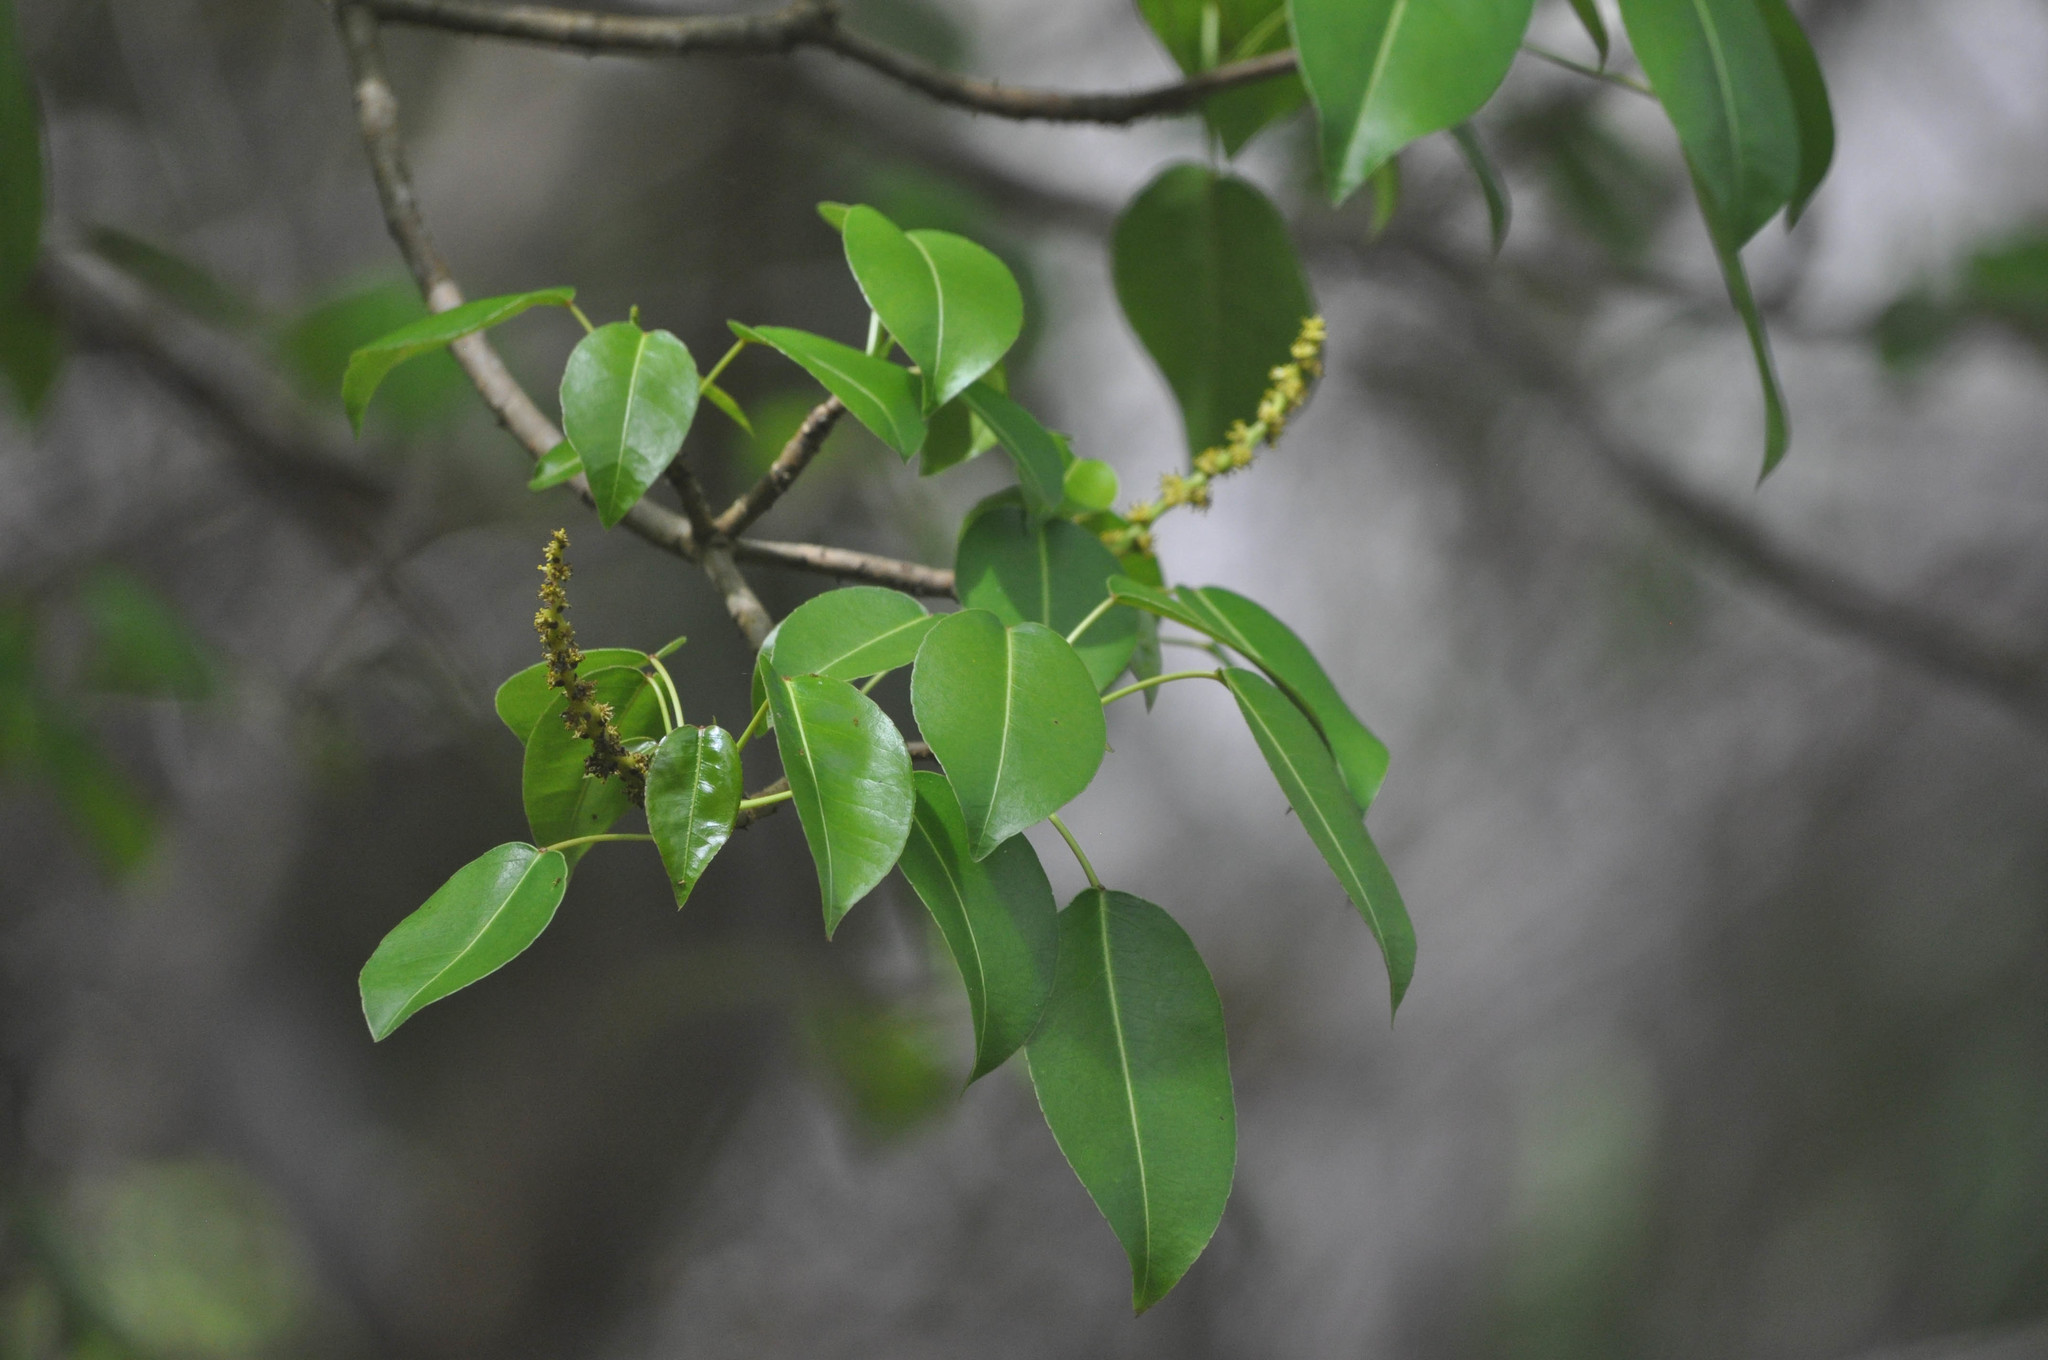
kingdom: Plantae
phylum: Tracheophyta
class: Magnoliopsida
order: Malpighiales
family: Euphorbiaceae
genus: Hippomane
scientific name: Hippomane mancinella
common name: Manchineel
